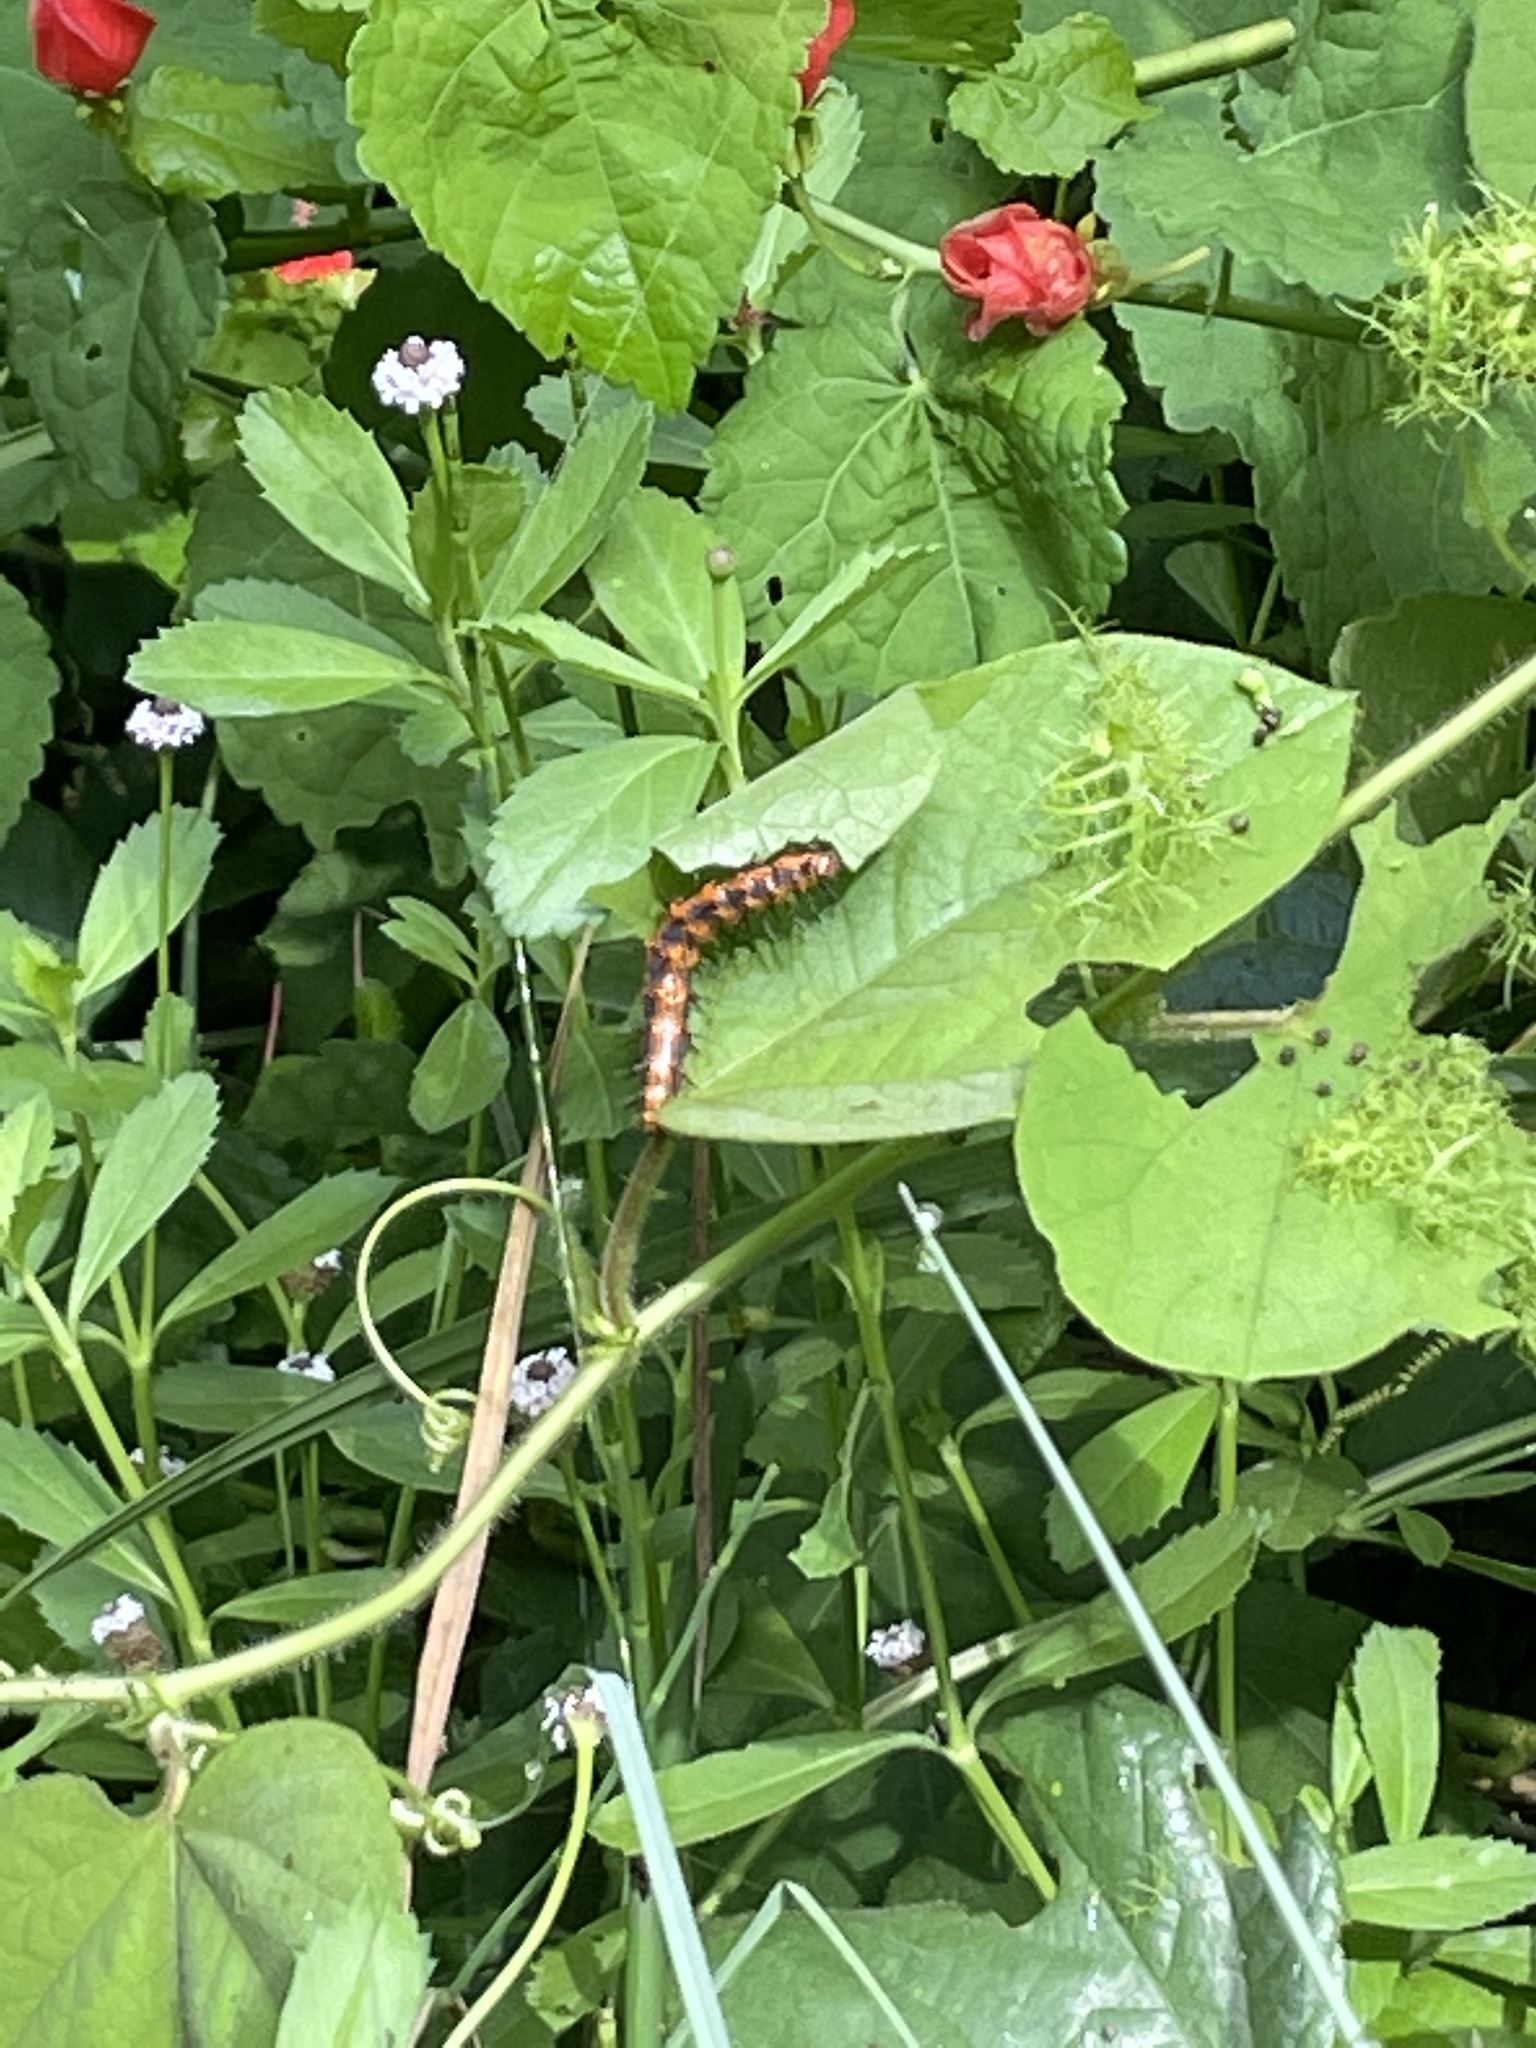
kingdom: Animalia
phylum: Arthropoda
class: Insecta
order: Lepidoptera
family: Nymphalidae
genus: Dione
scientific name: Dione vanillae
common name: Gulf fritillary
